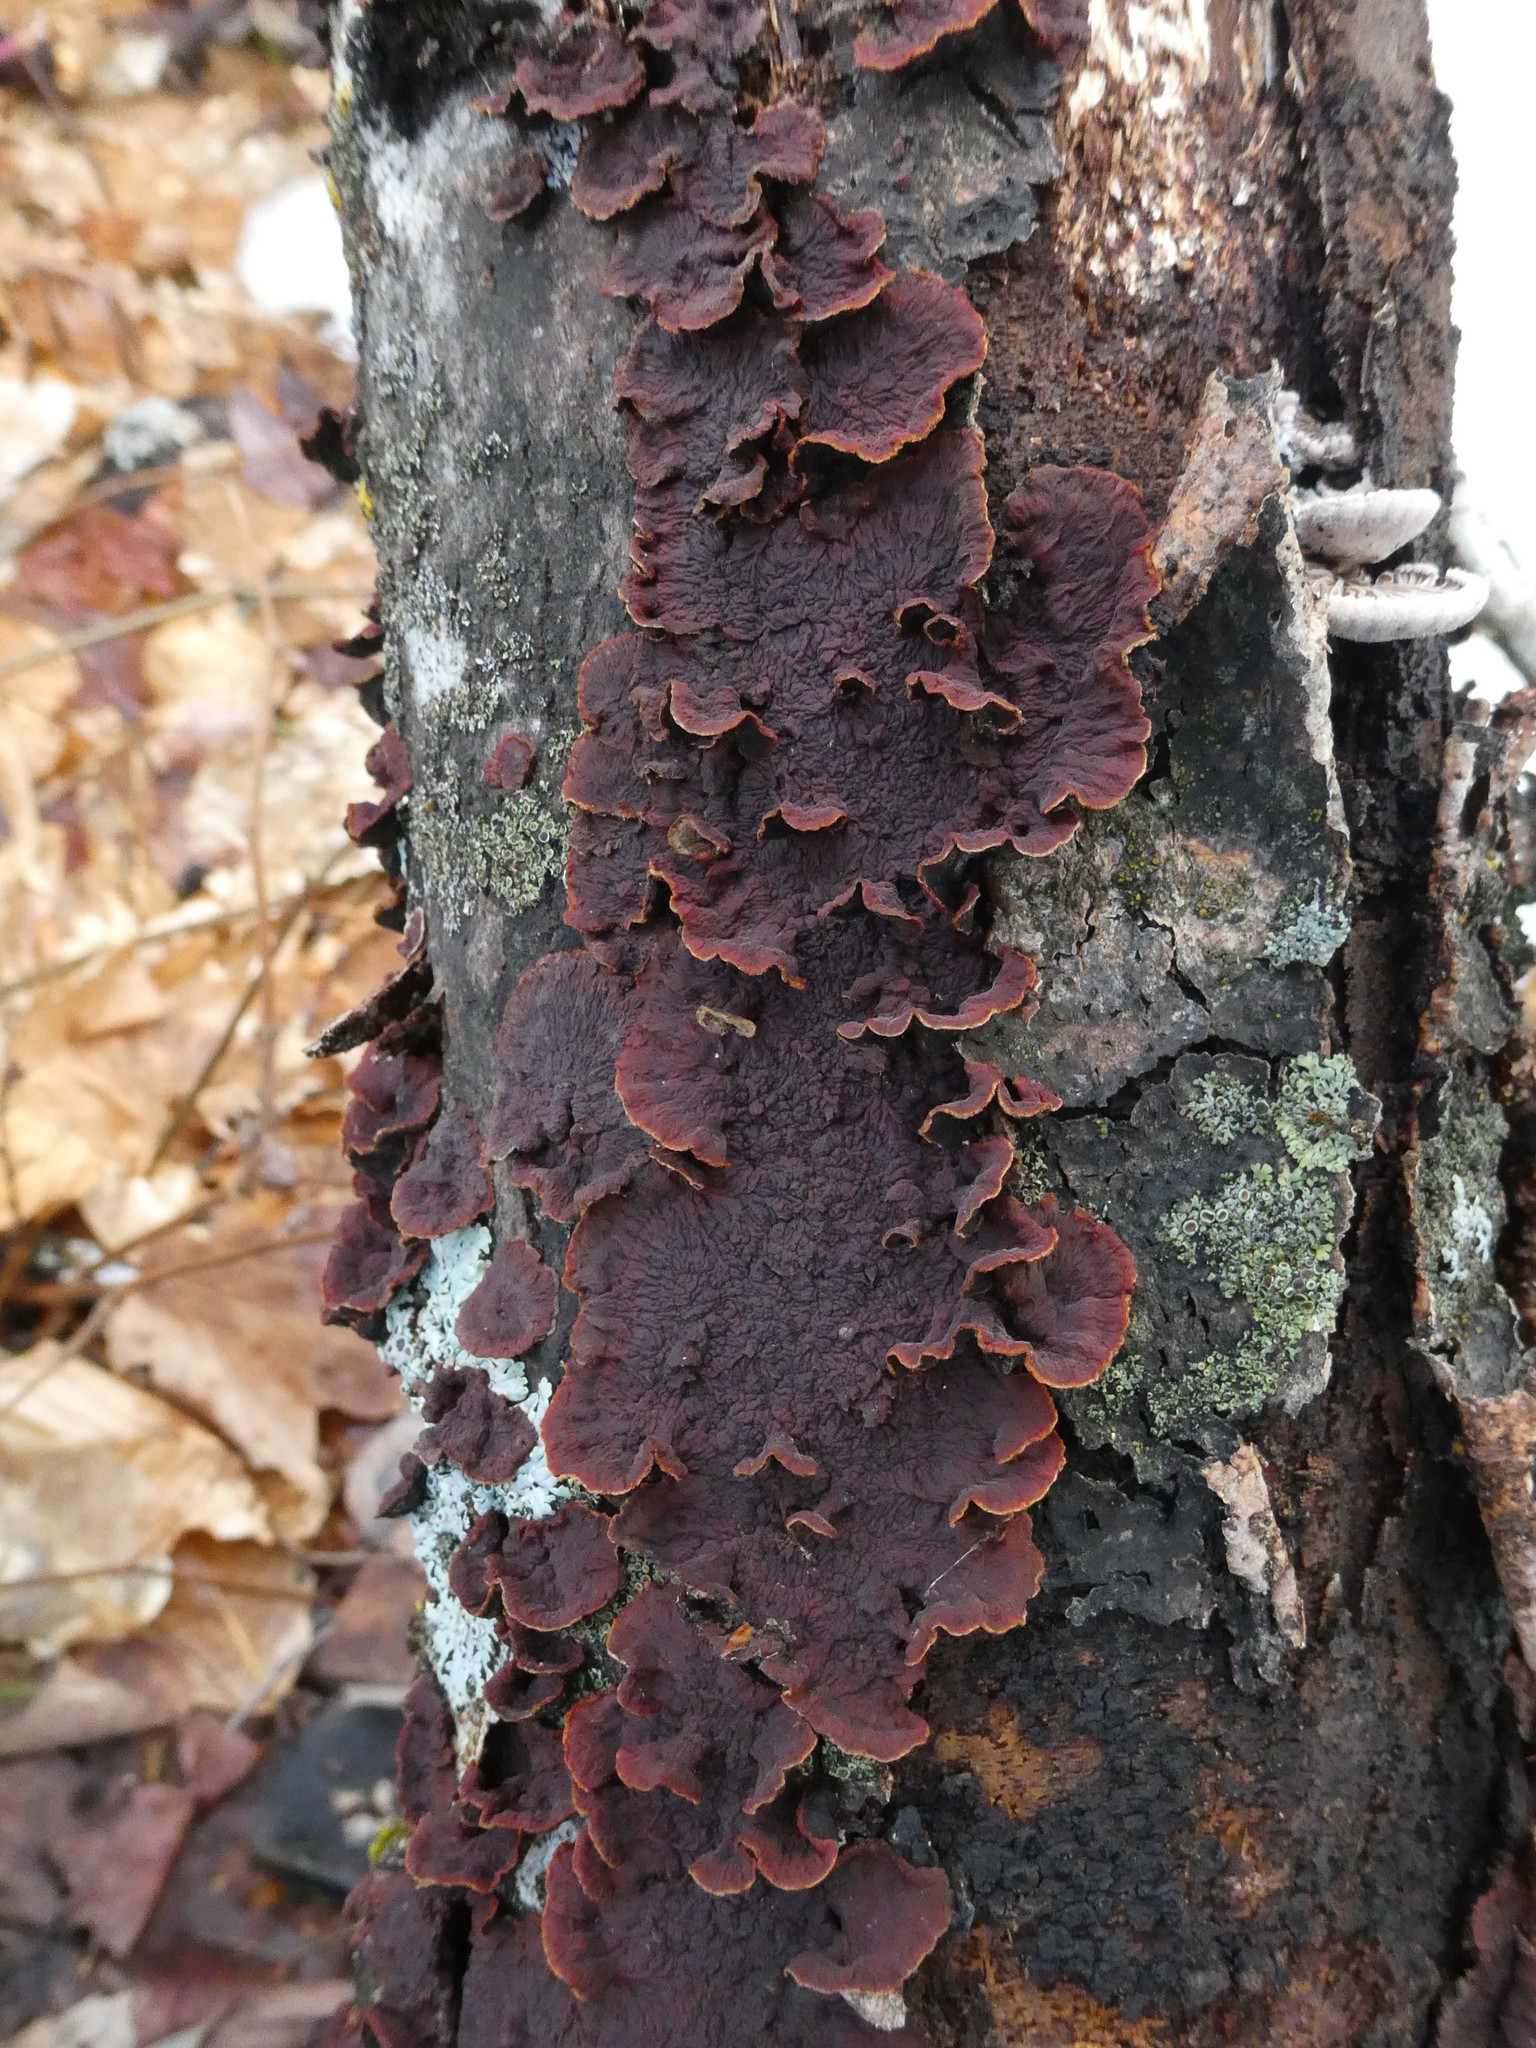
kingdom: Fungi
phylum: Basidiomycota
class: Agaricomycetes
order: Corticiales
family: Punctulariaceae
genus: Punctularia
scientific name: Punctularia strigosozonata
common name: White-rot fungus
